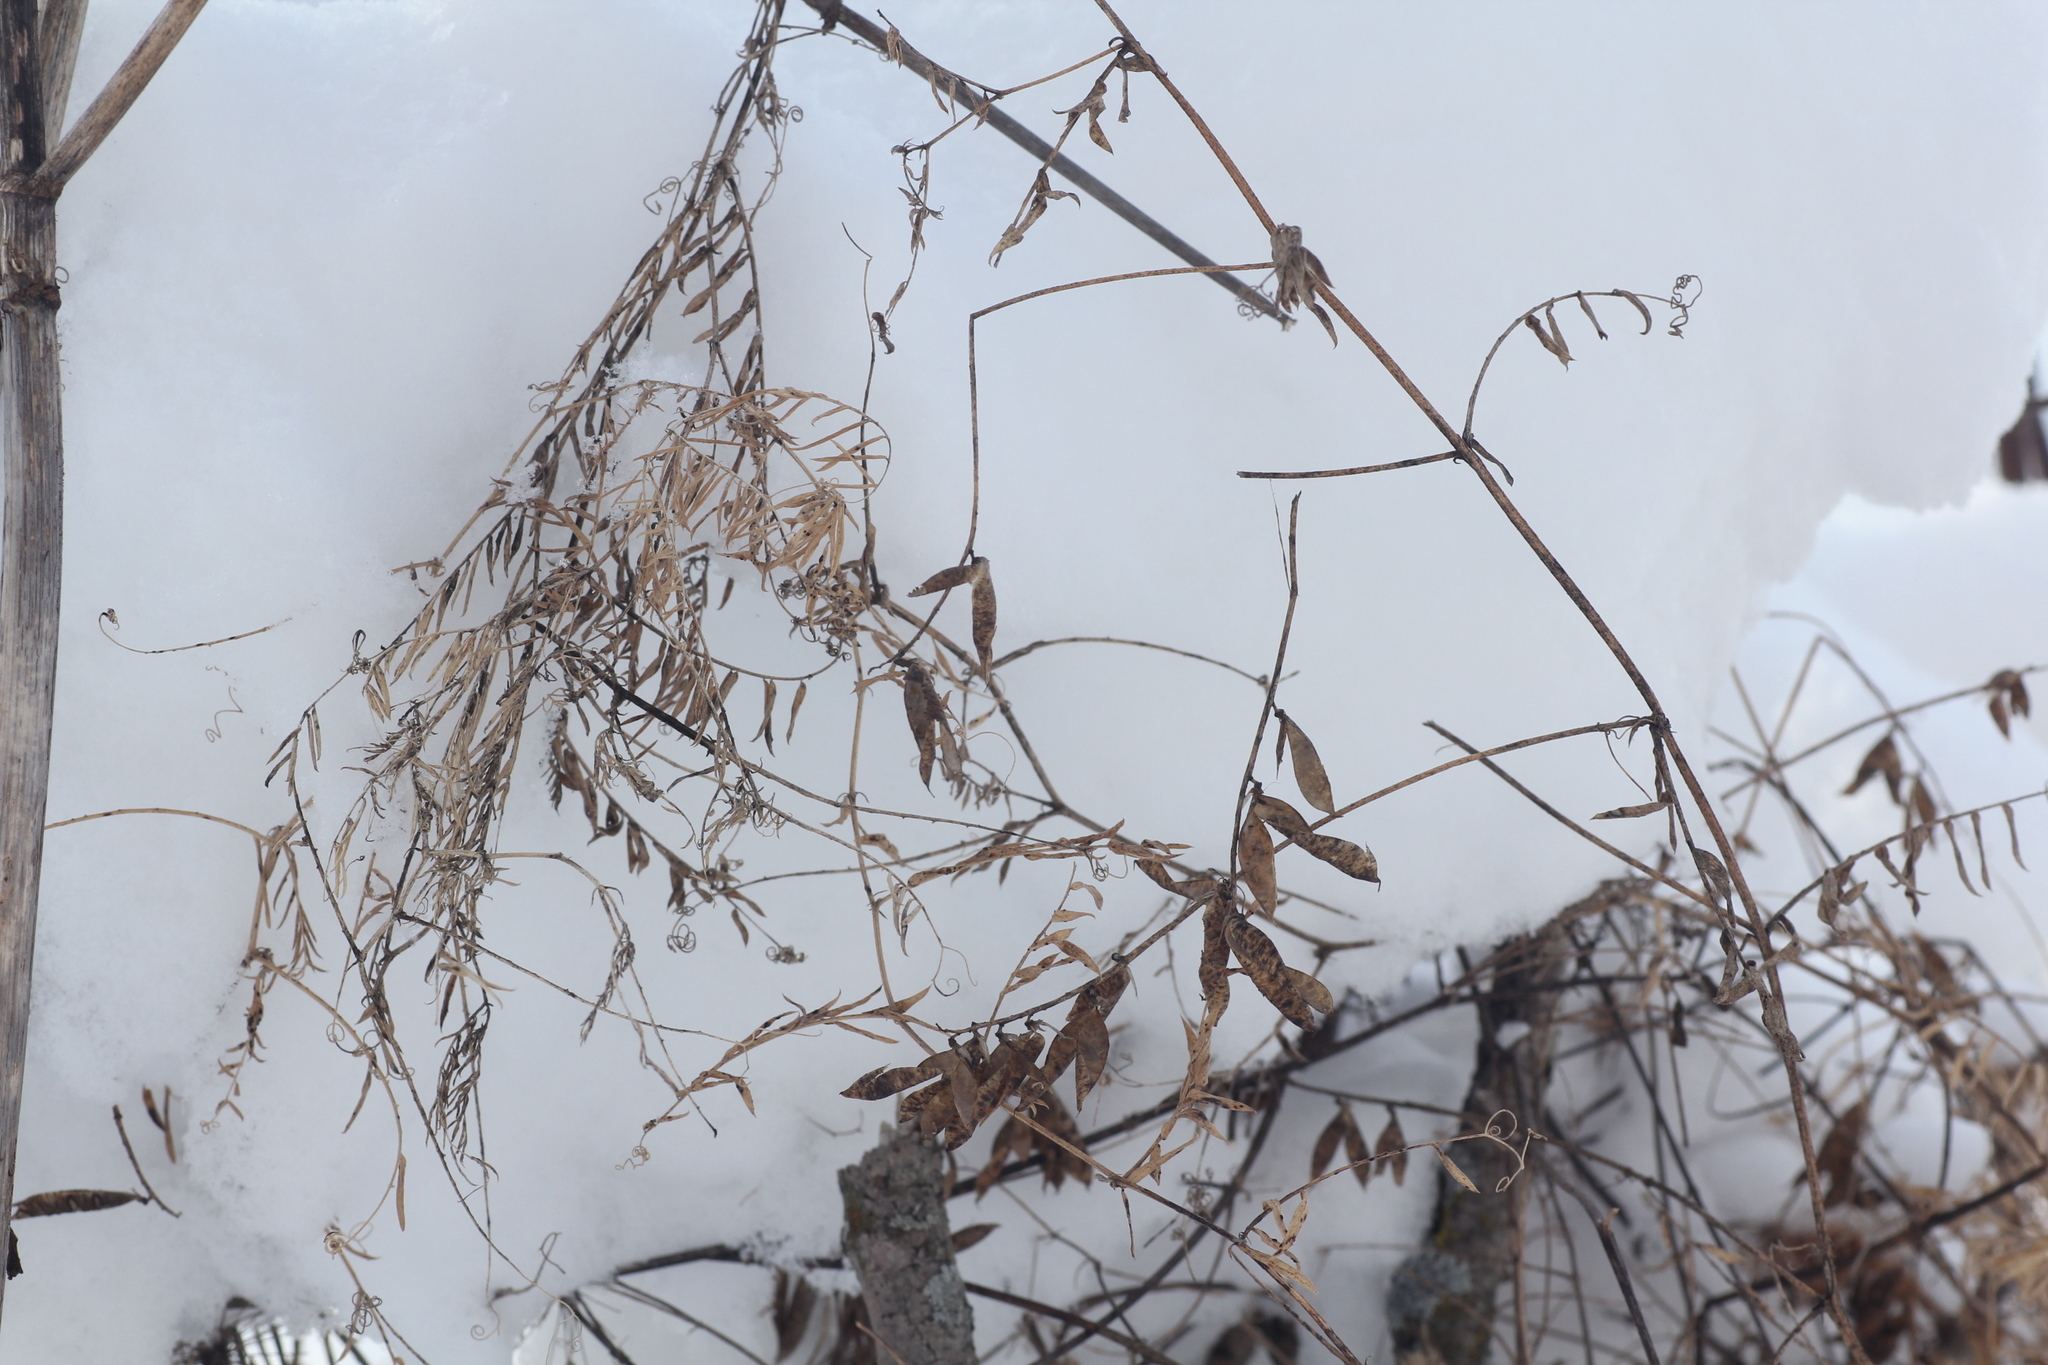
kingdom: Plantae
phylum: Tracheophyta
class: Magnoliopsida
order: Fabales
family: Fabaceae
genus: Vicia
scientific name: Vicia cracca
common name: Bird vetch
